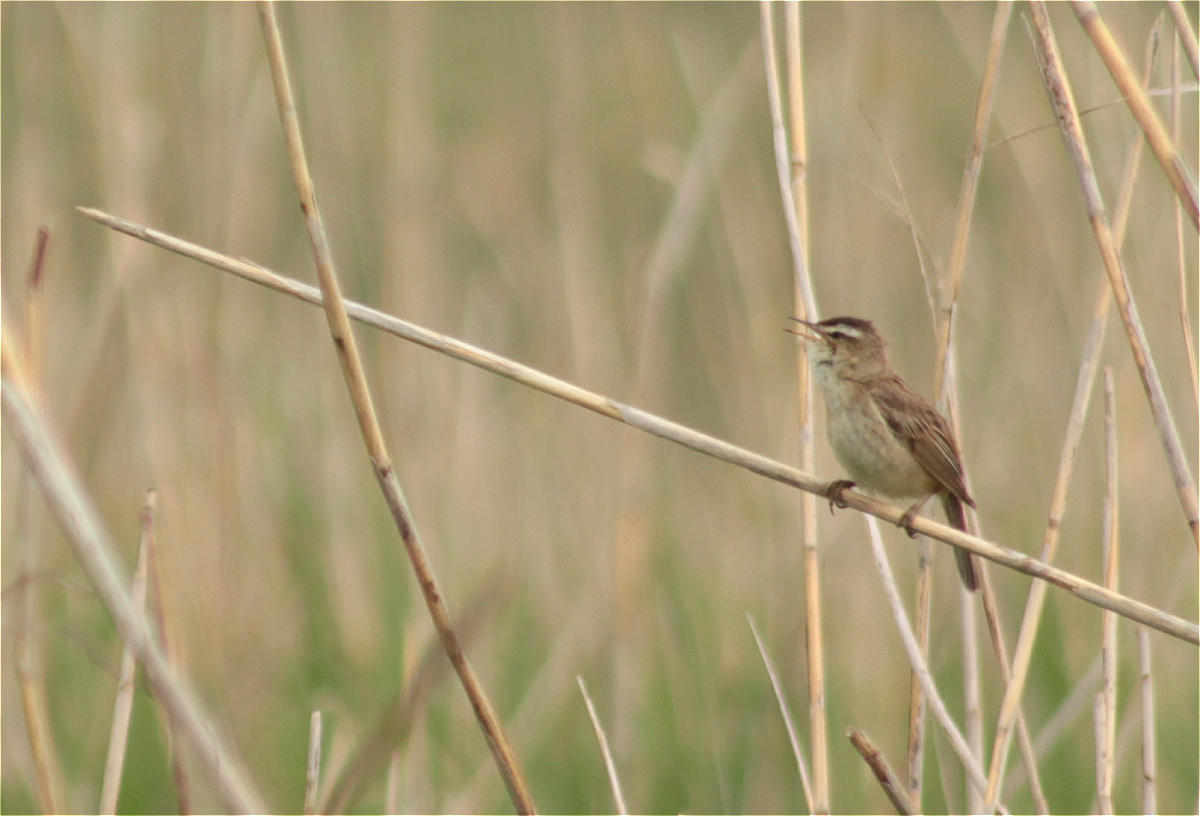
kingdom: Animalia
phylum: Chordata
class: Aves
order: Passeriformes
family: Acrocephalidae
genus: Acrocephalus
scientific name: Acrocephalus schoenobaenus
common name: Sedge warbler
